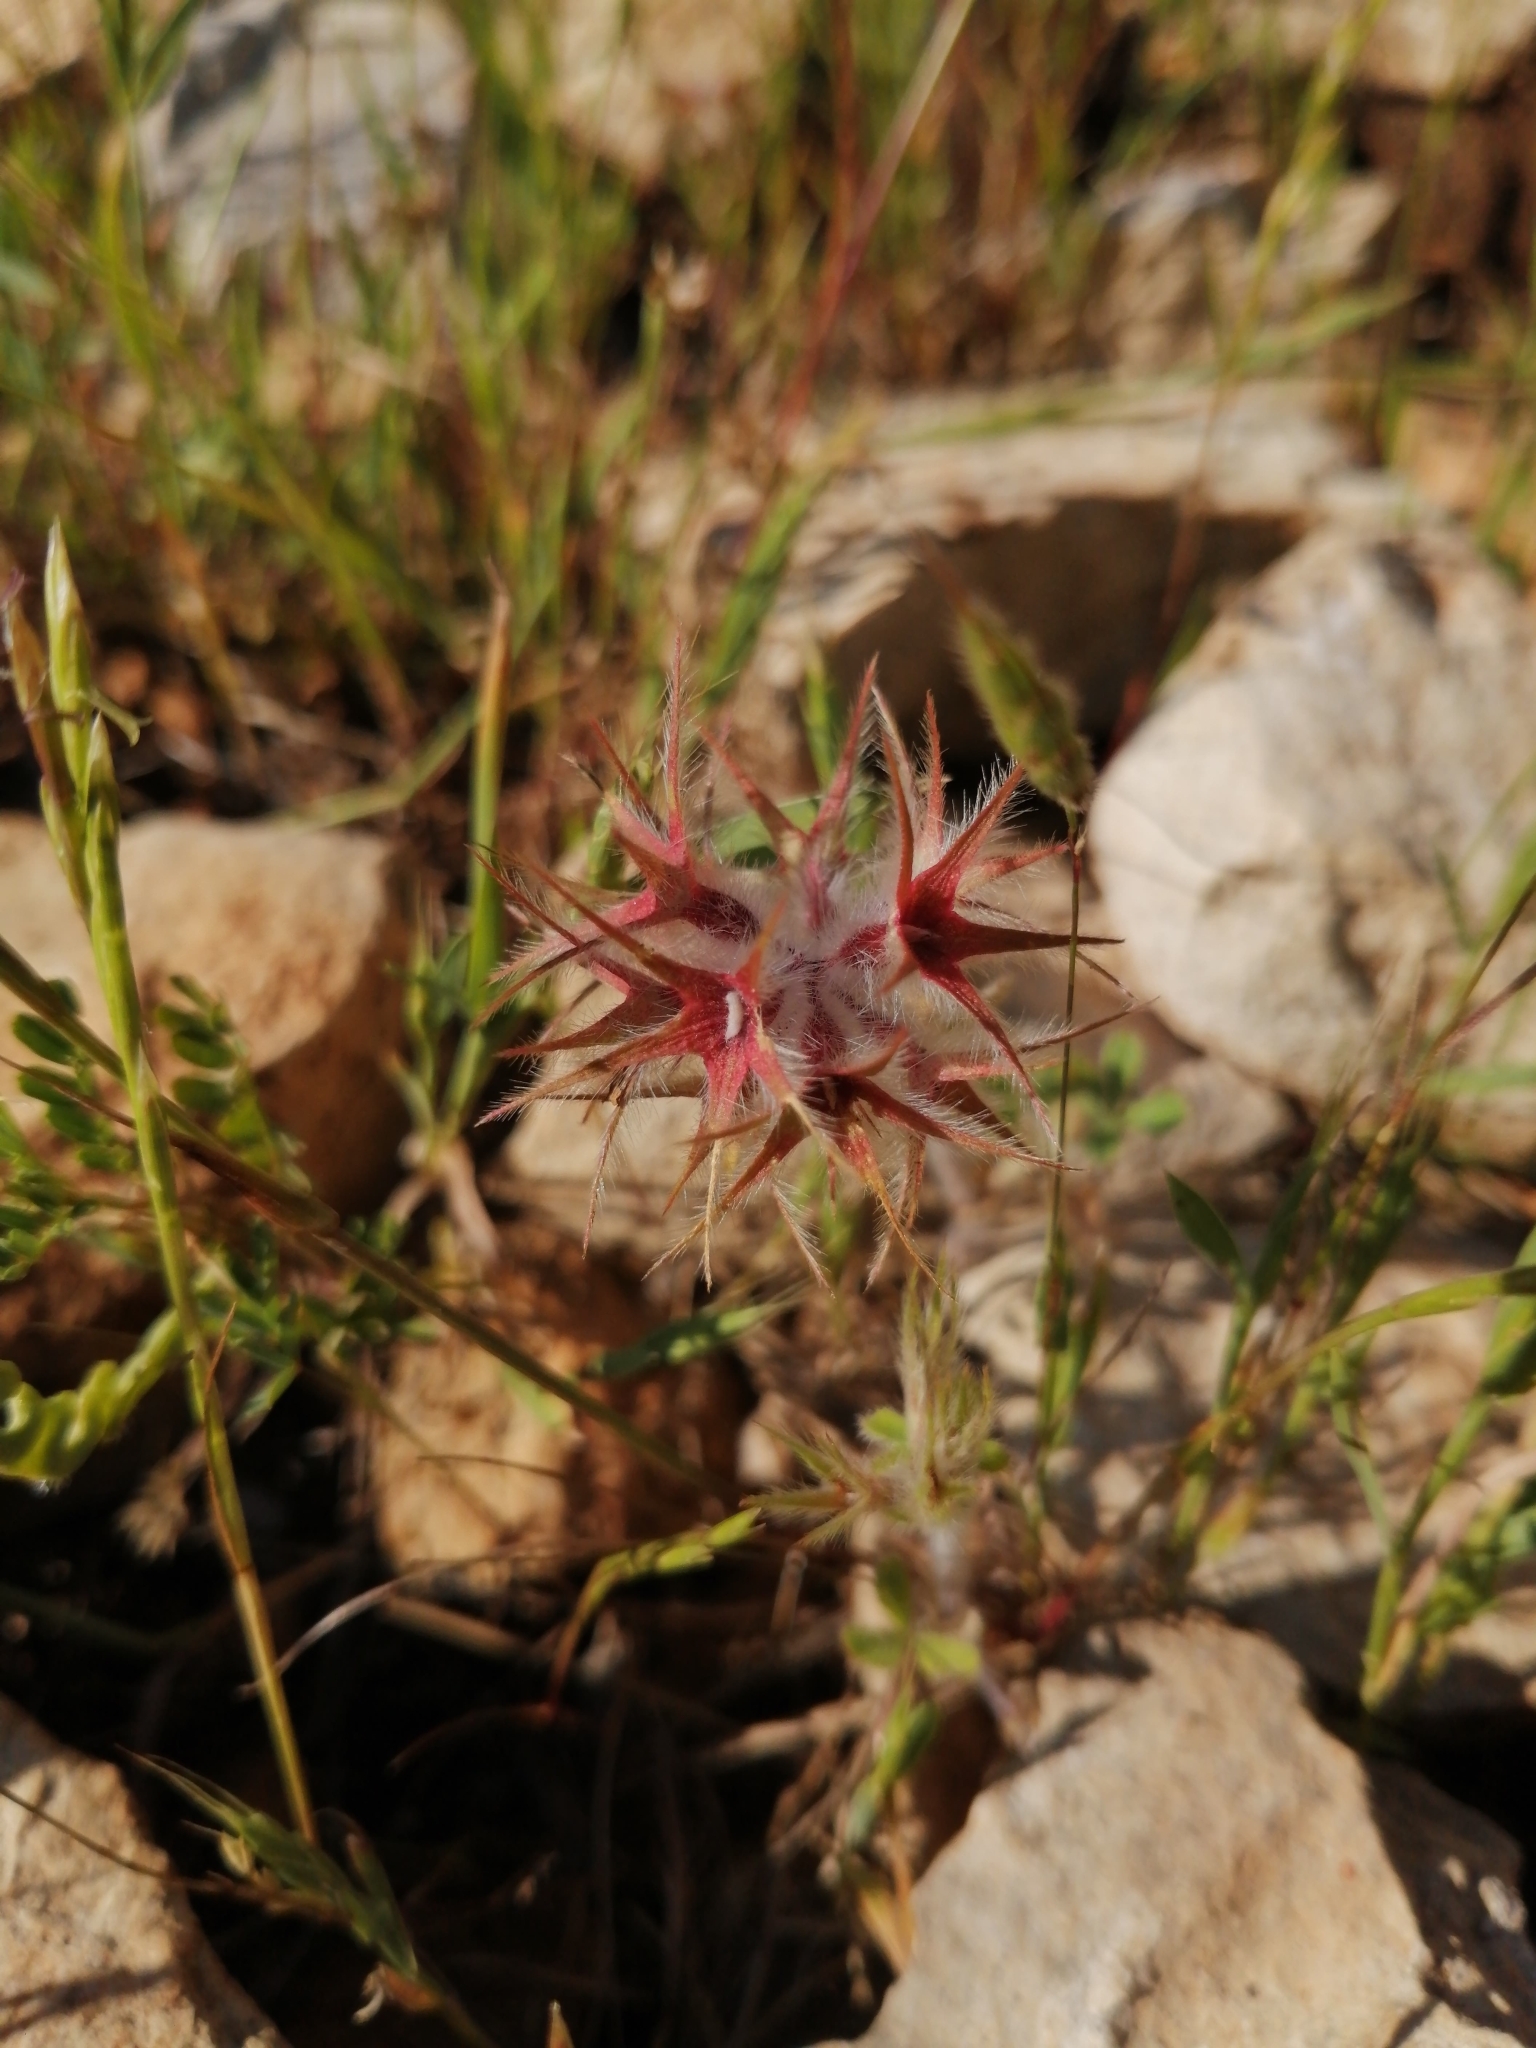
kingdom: Plantae
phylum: Tracheophyta
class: Magnoliopsida
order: Fabales
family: Fabaceae
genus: Trifolium
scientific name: Trifolium stellatum
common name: Starry clover
